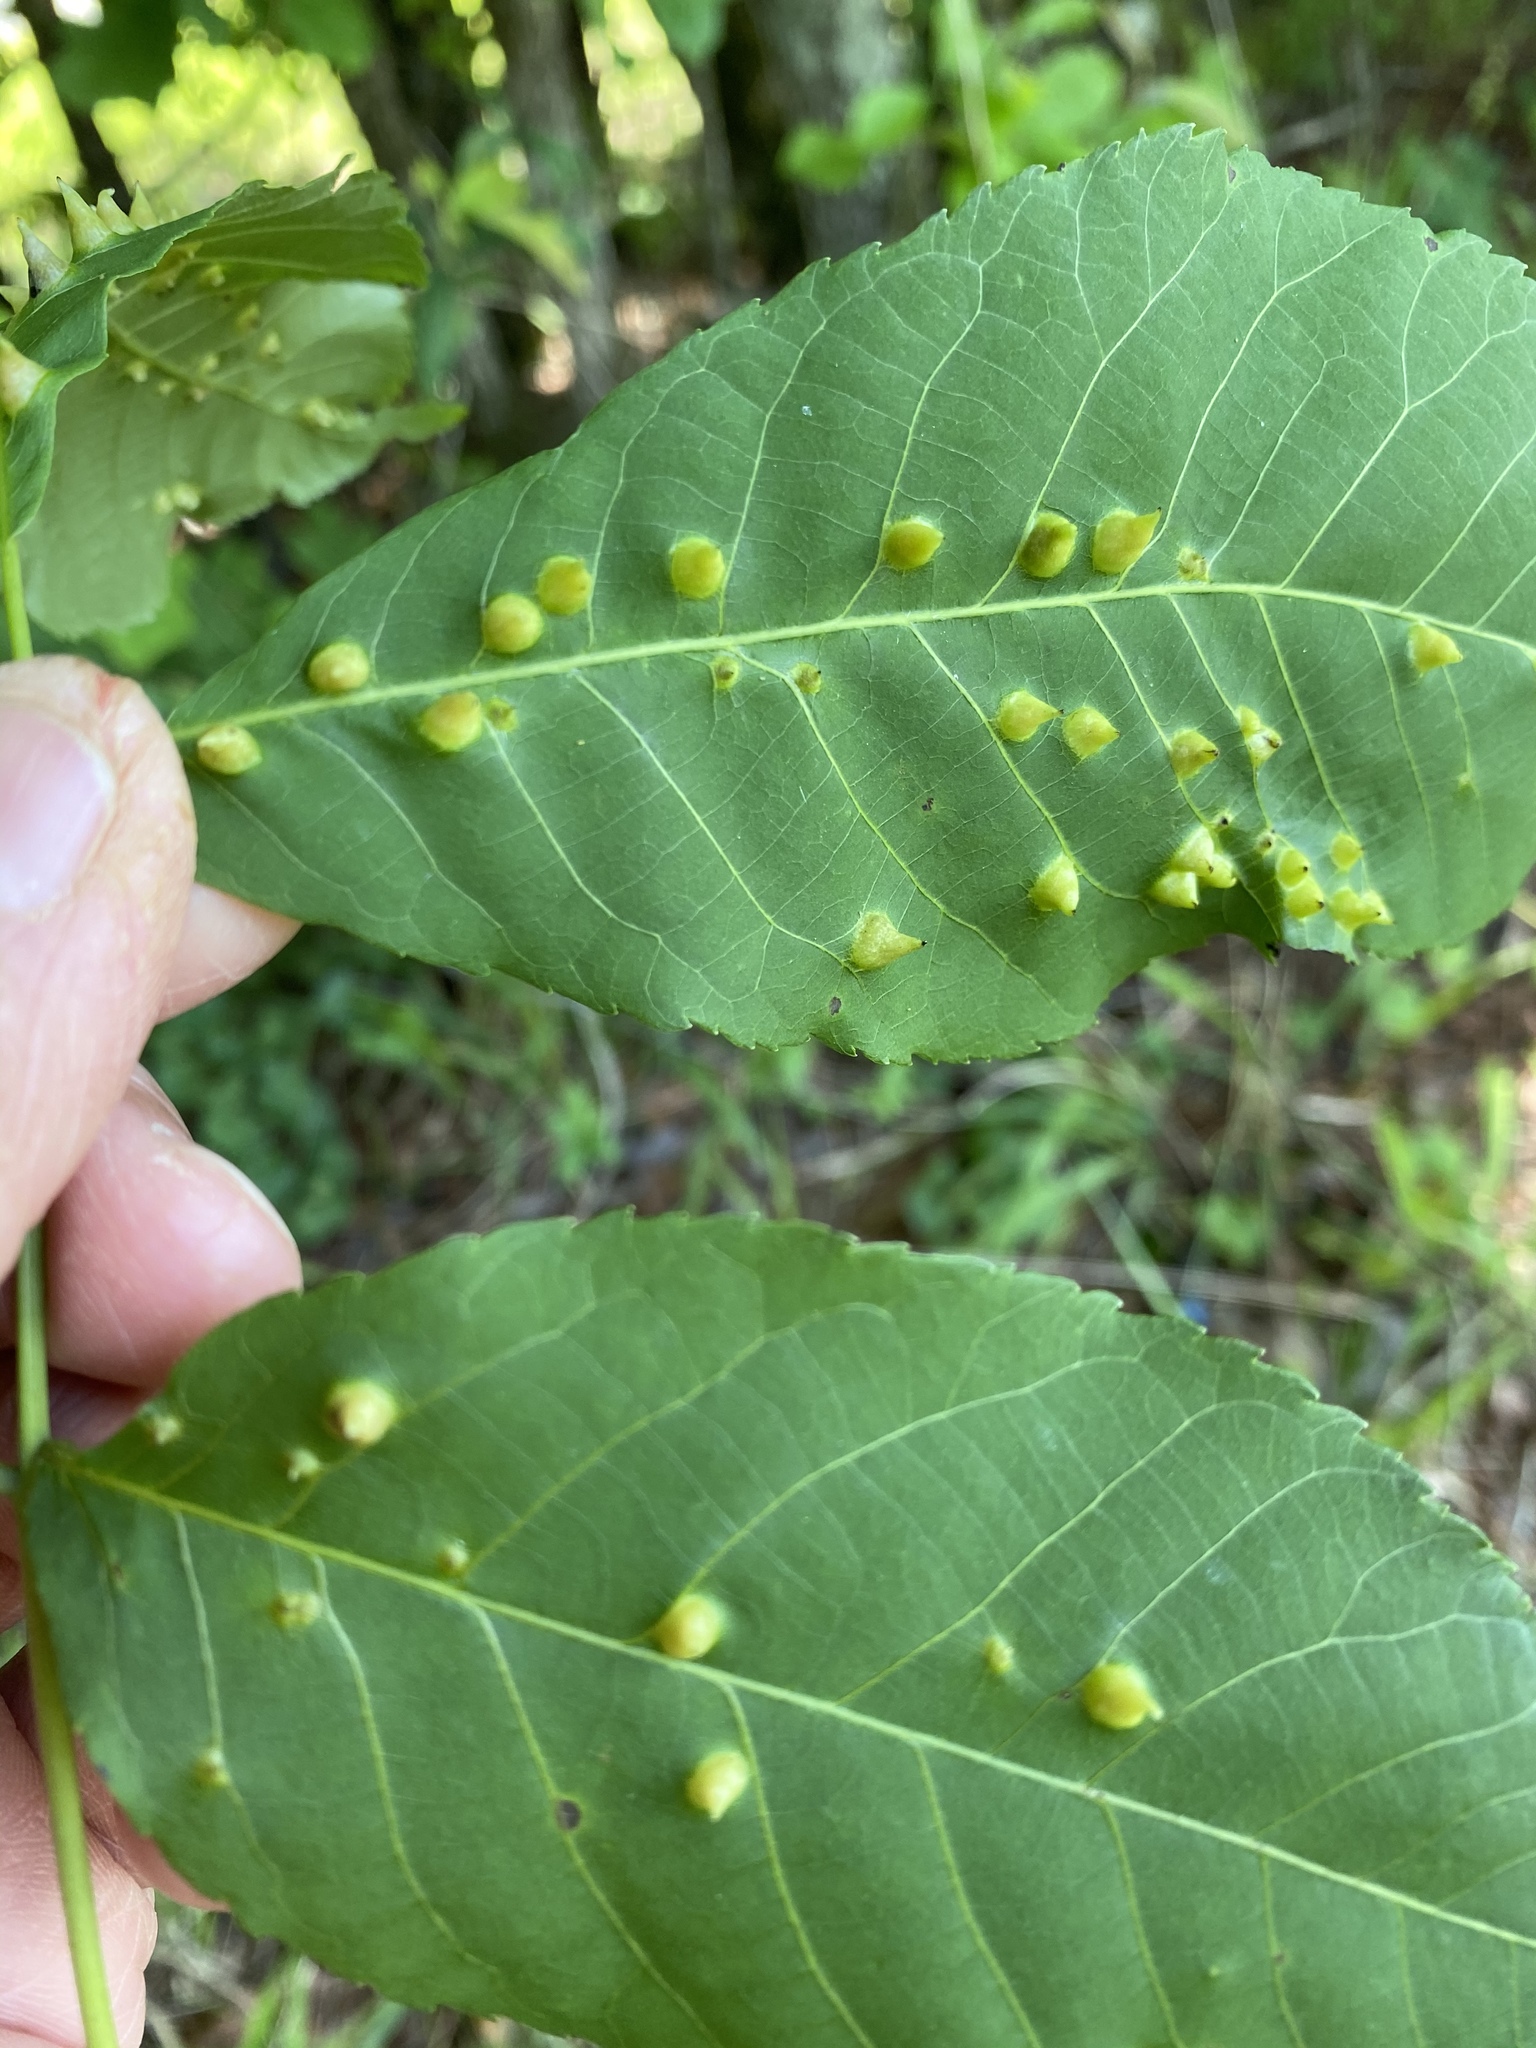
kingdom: Animalia
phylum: Arthropoda
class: Insecta
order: Hemiptera
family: Phylloxeridae
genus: Phylloxera
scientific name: Phylloxera caryaefallax
